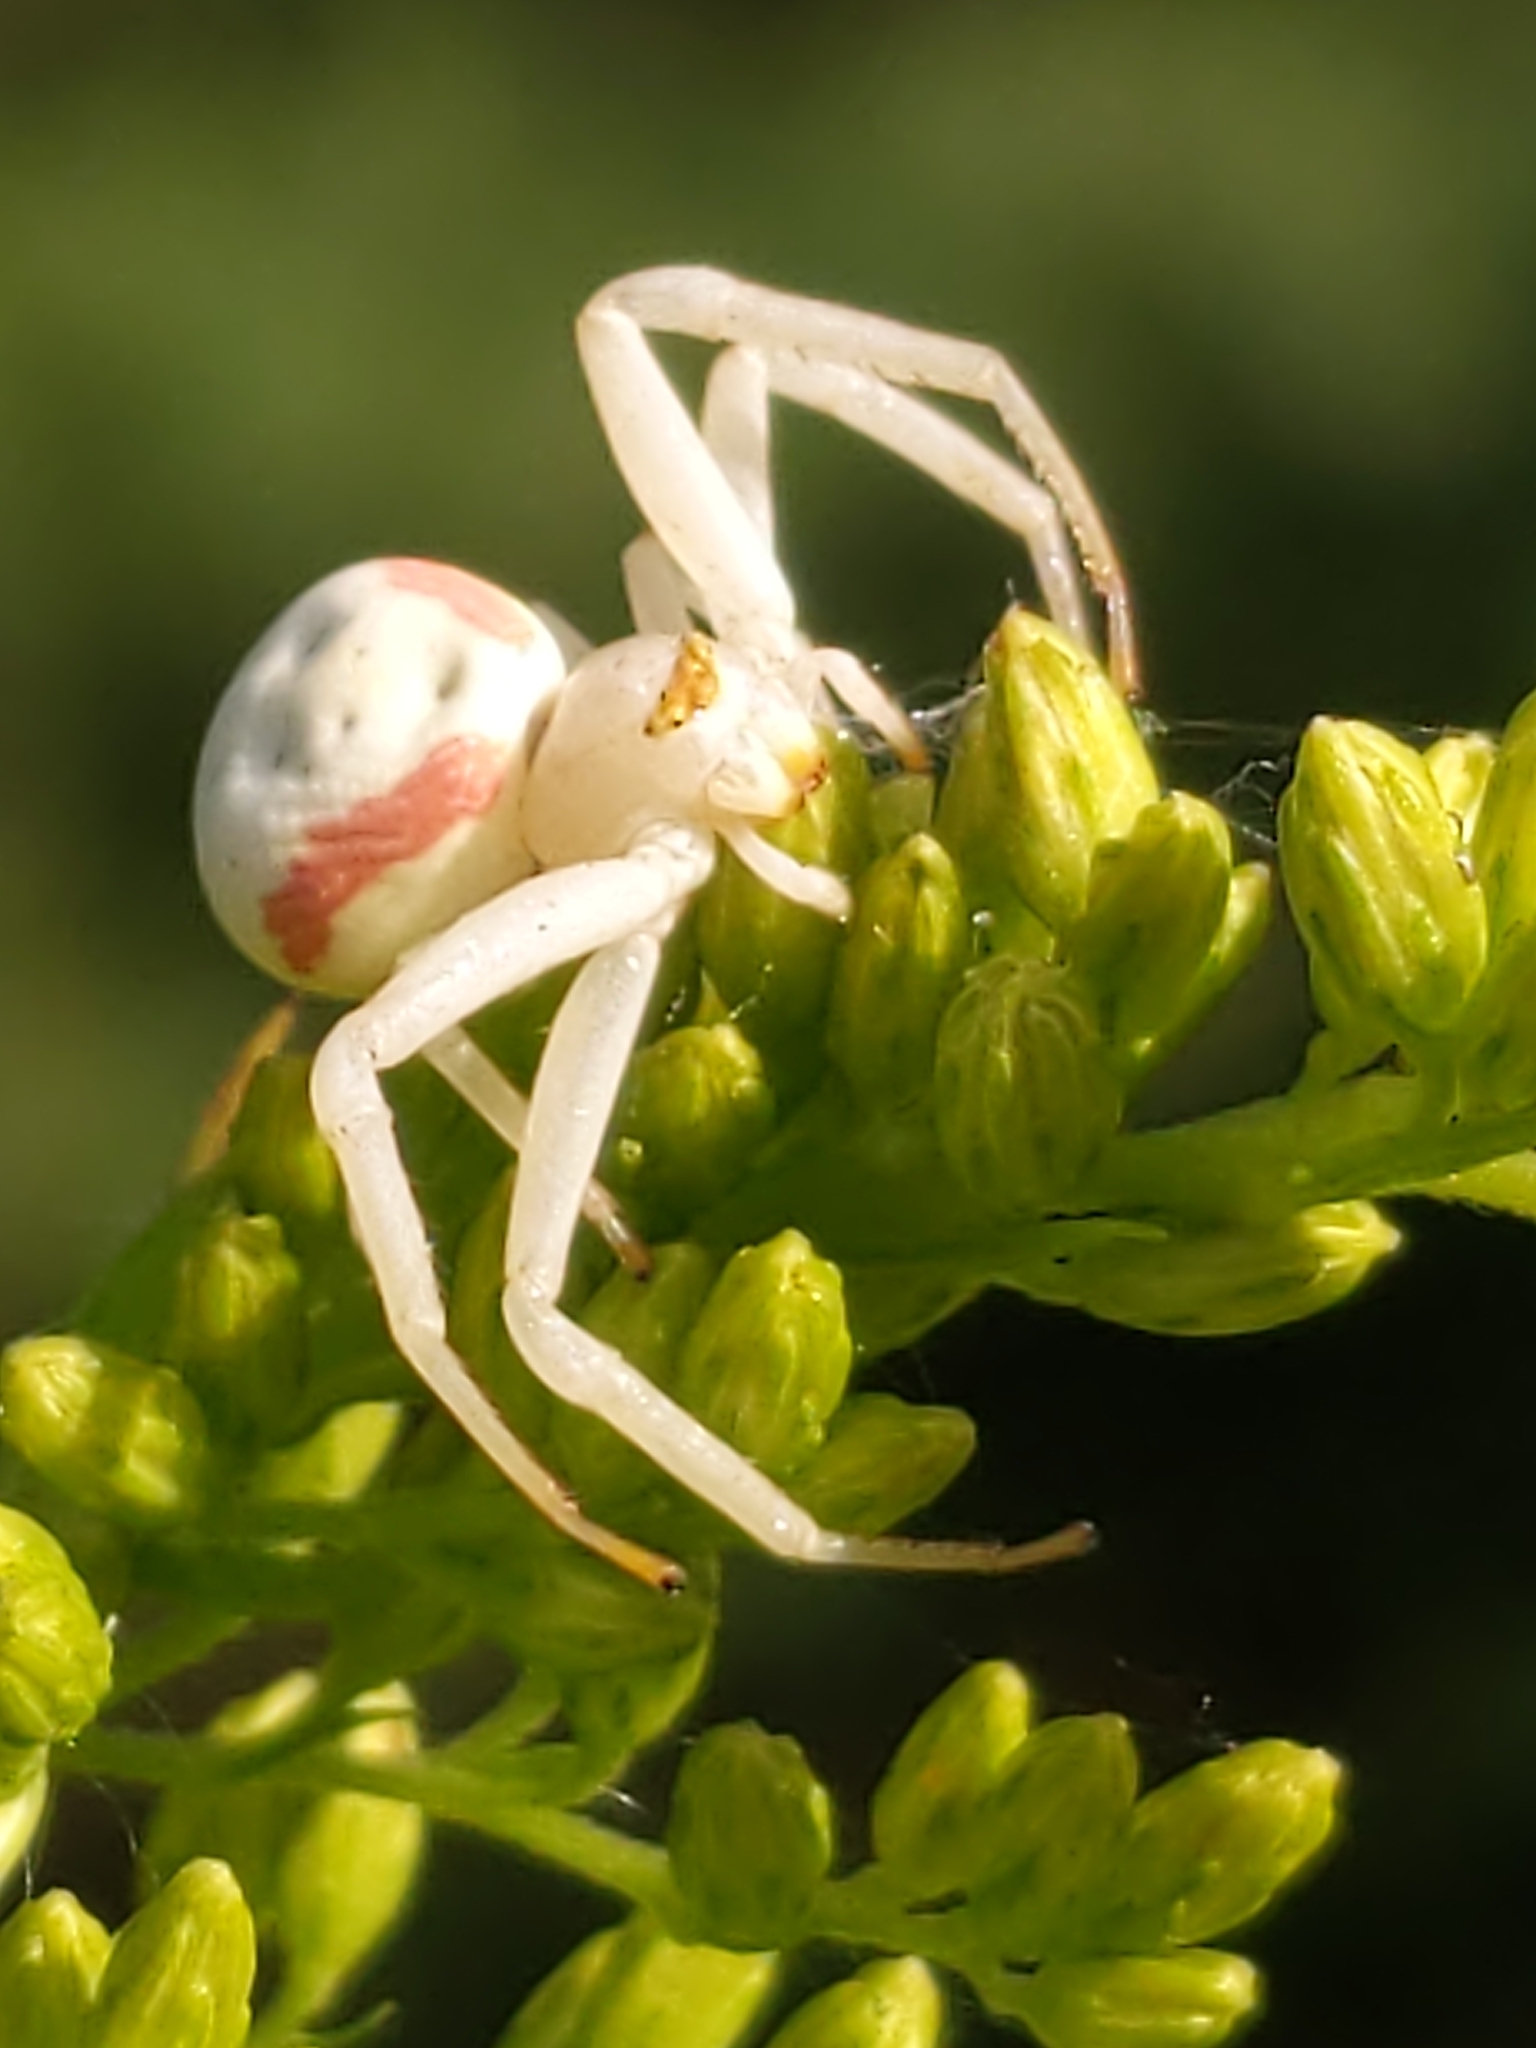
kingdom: Animalia
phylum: Arthropoda
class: Arachnida
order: Araneae
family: Thomisidae
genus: Misumena
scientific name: Misumena vatia
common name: Goldenrod crab spider
